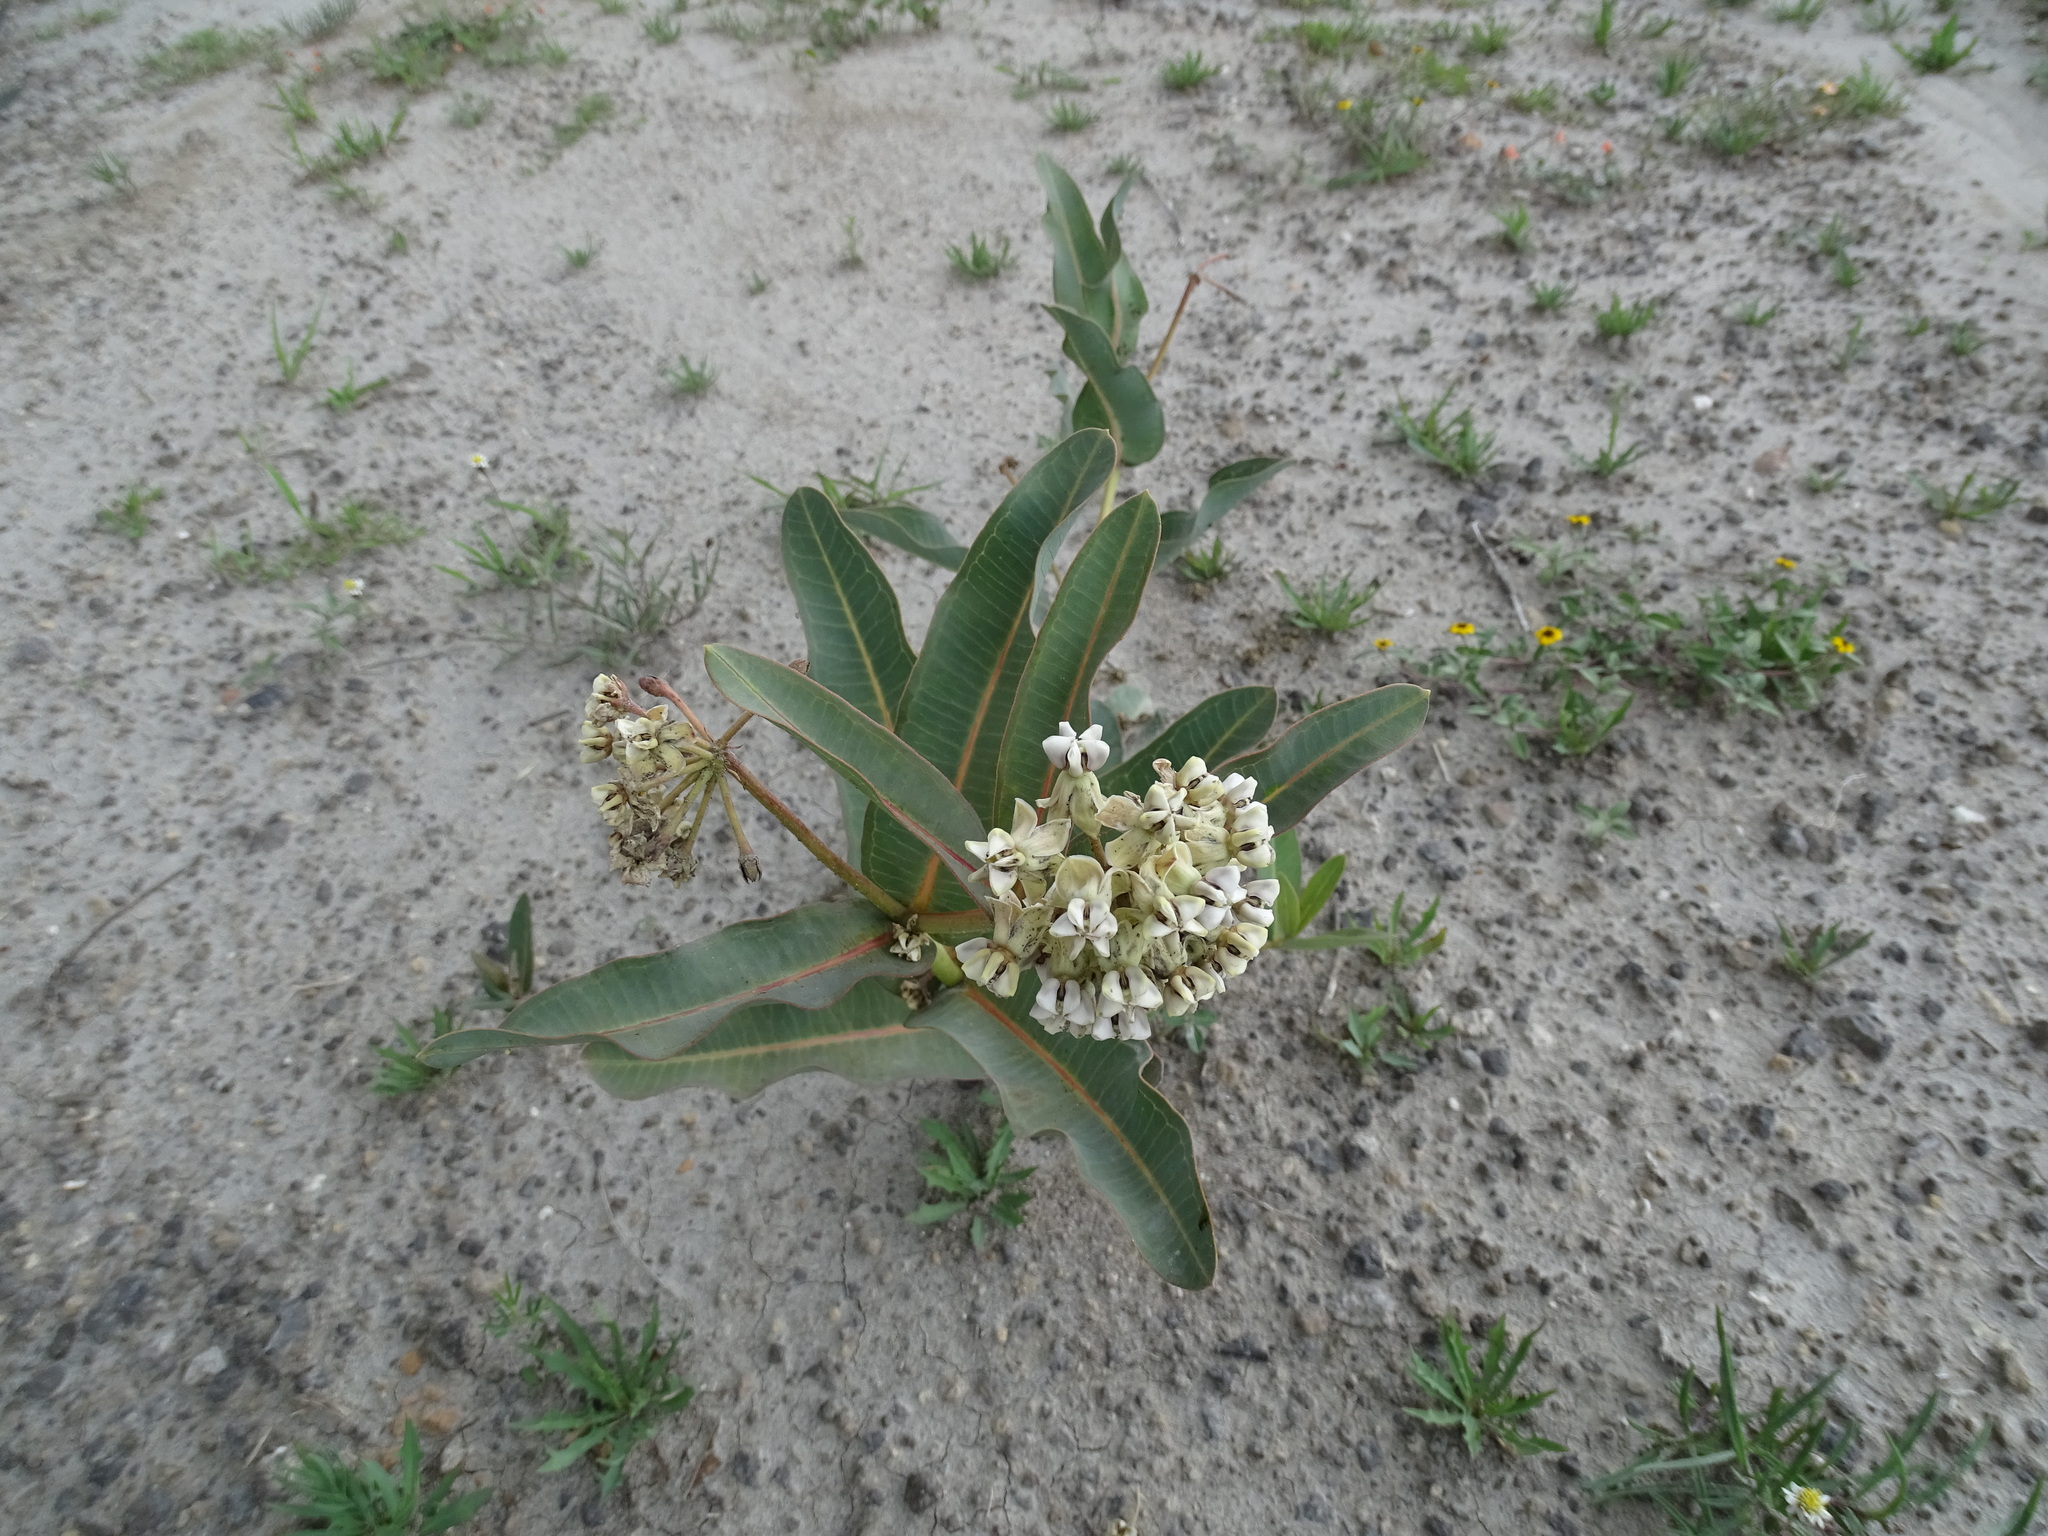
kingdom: Plantae
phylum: Tracheophyta
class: Magnoliopsida
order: Gentianales
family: Apocynaceae
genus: Asclepias
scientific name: Asclepias glaucescens
